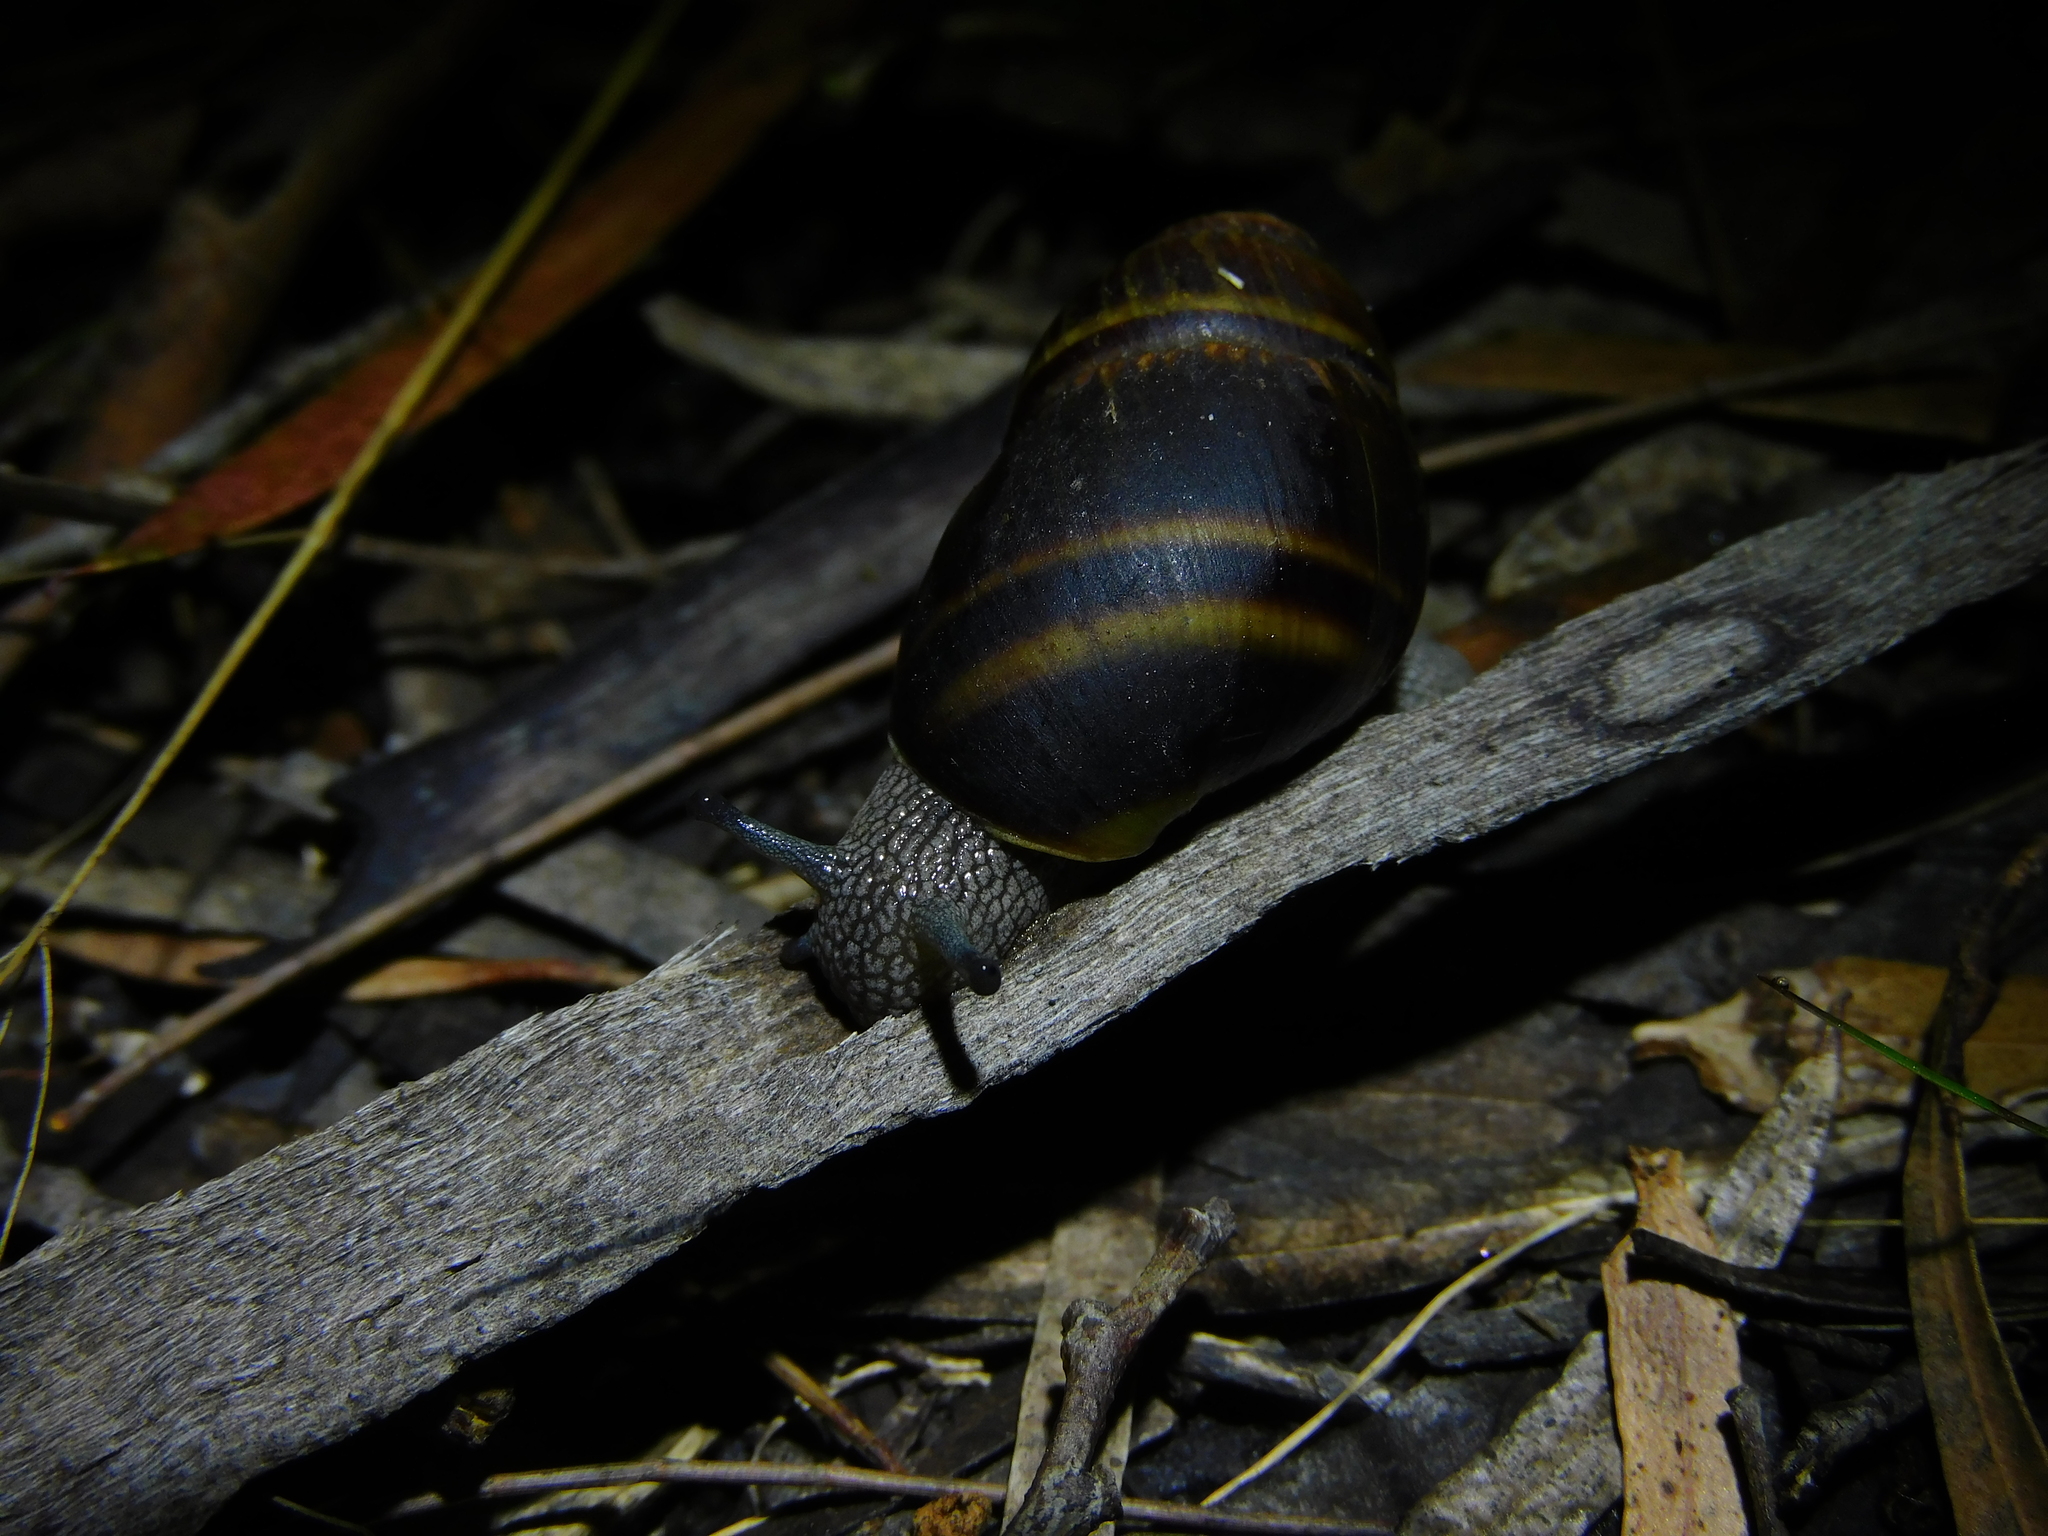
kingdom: Animalia
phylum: Mollusca
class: Gastropoda
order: Stylommatophora
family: Caryodidae
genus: Caryodes
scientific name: Caryodes dufresnii
